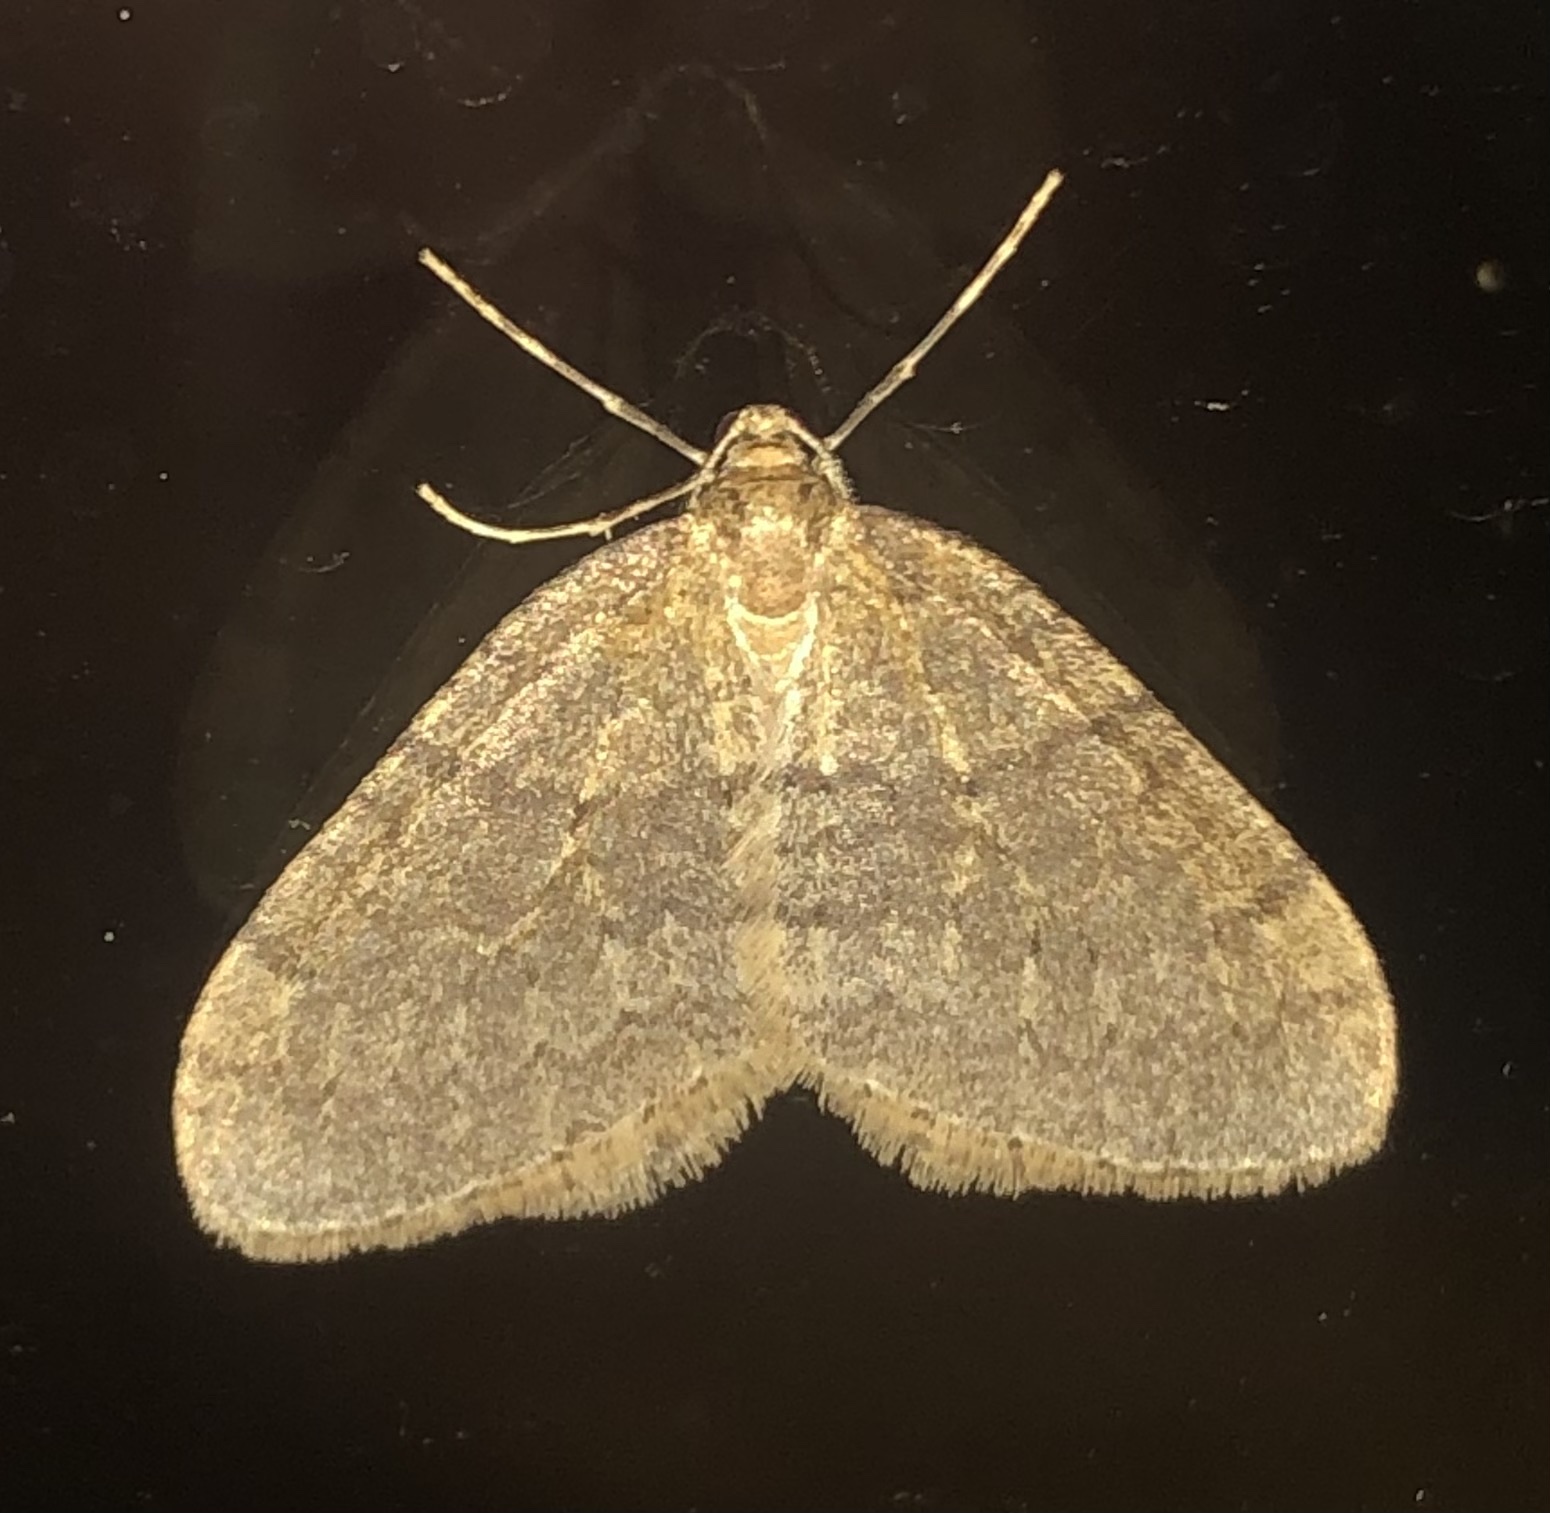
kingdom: Animalia
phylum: Arthropoda
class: Insecta
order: Lepidoptera
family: Geometridae
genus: Operophtera
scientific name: Operophtera brumata
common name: Winter moth
